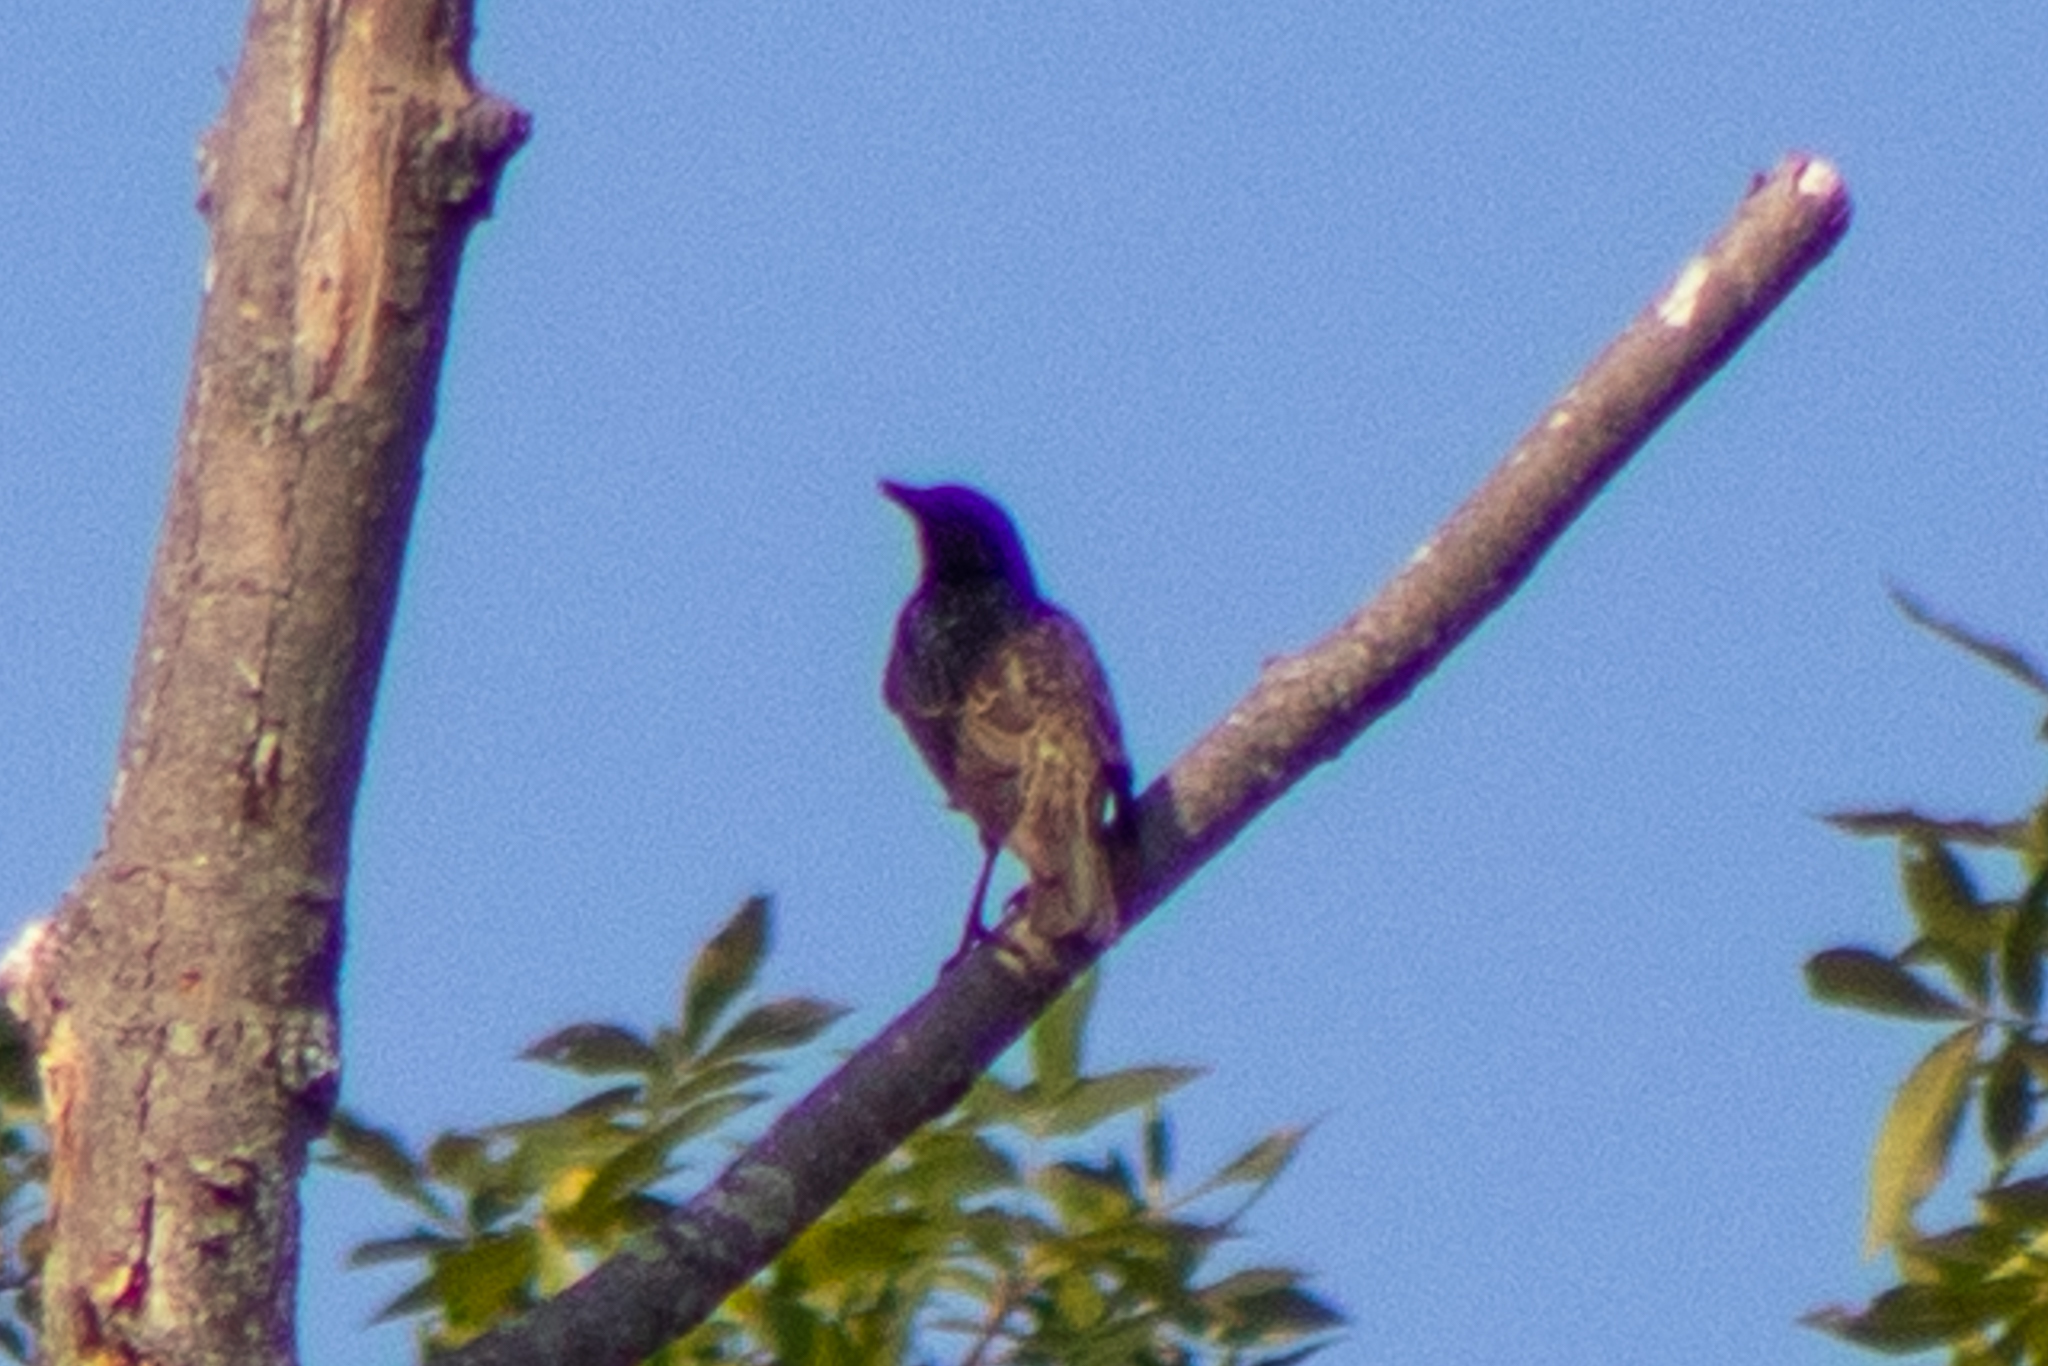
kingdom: Animalia
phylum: Chordata
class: Aves
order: Passeriformes
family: Sturnidae
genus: Sturnus
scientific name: Sturnus vulgaris
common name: Common starling
